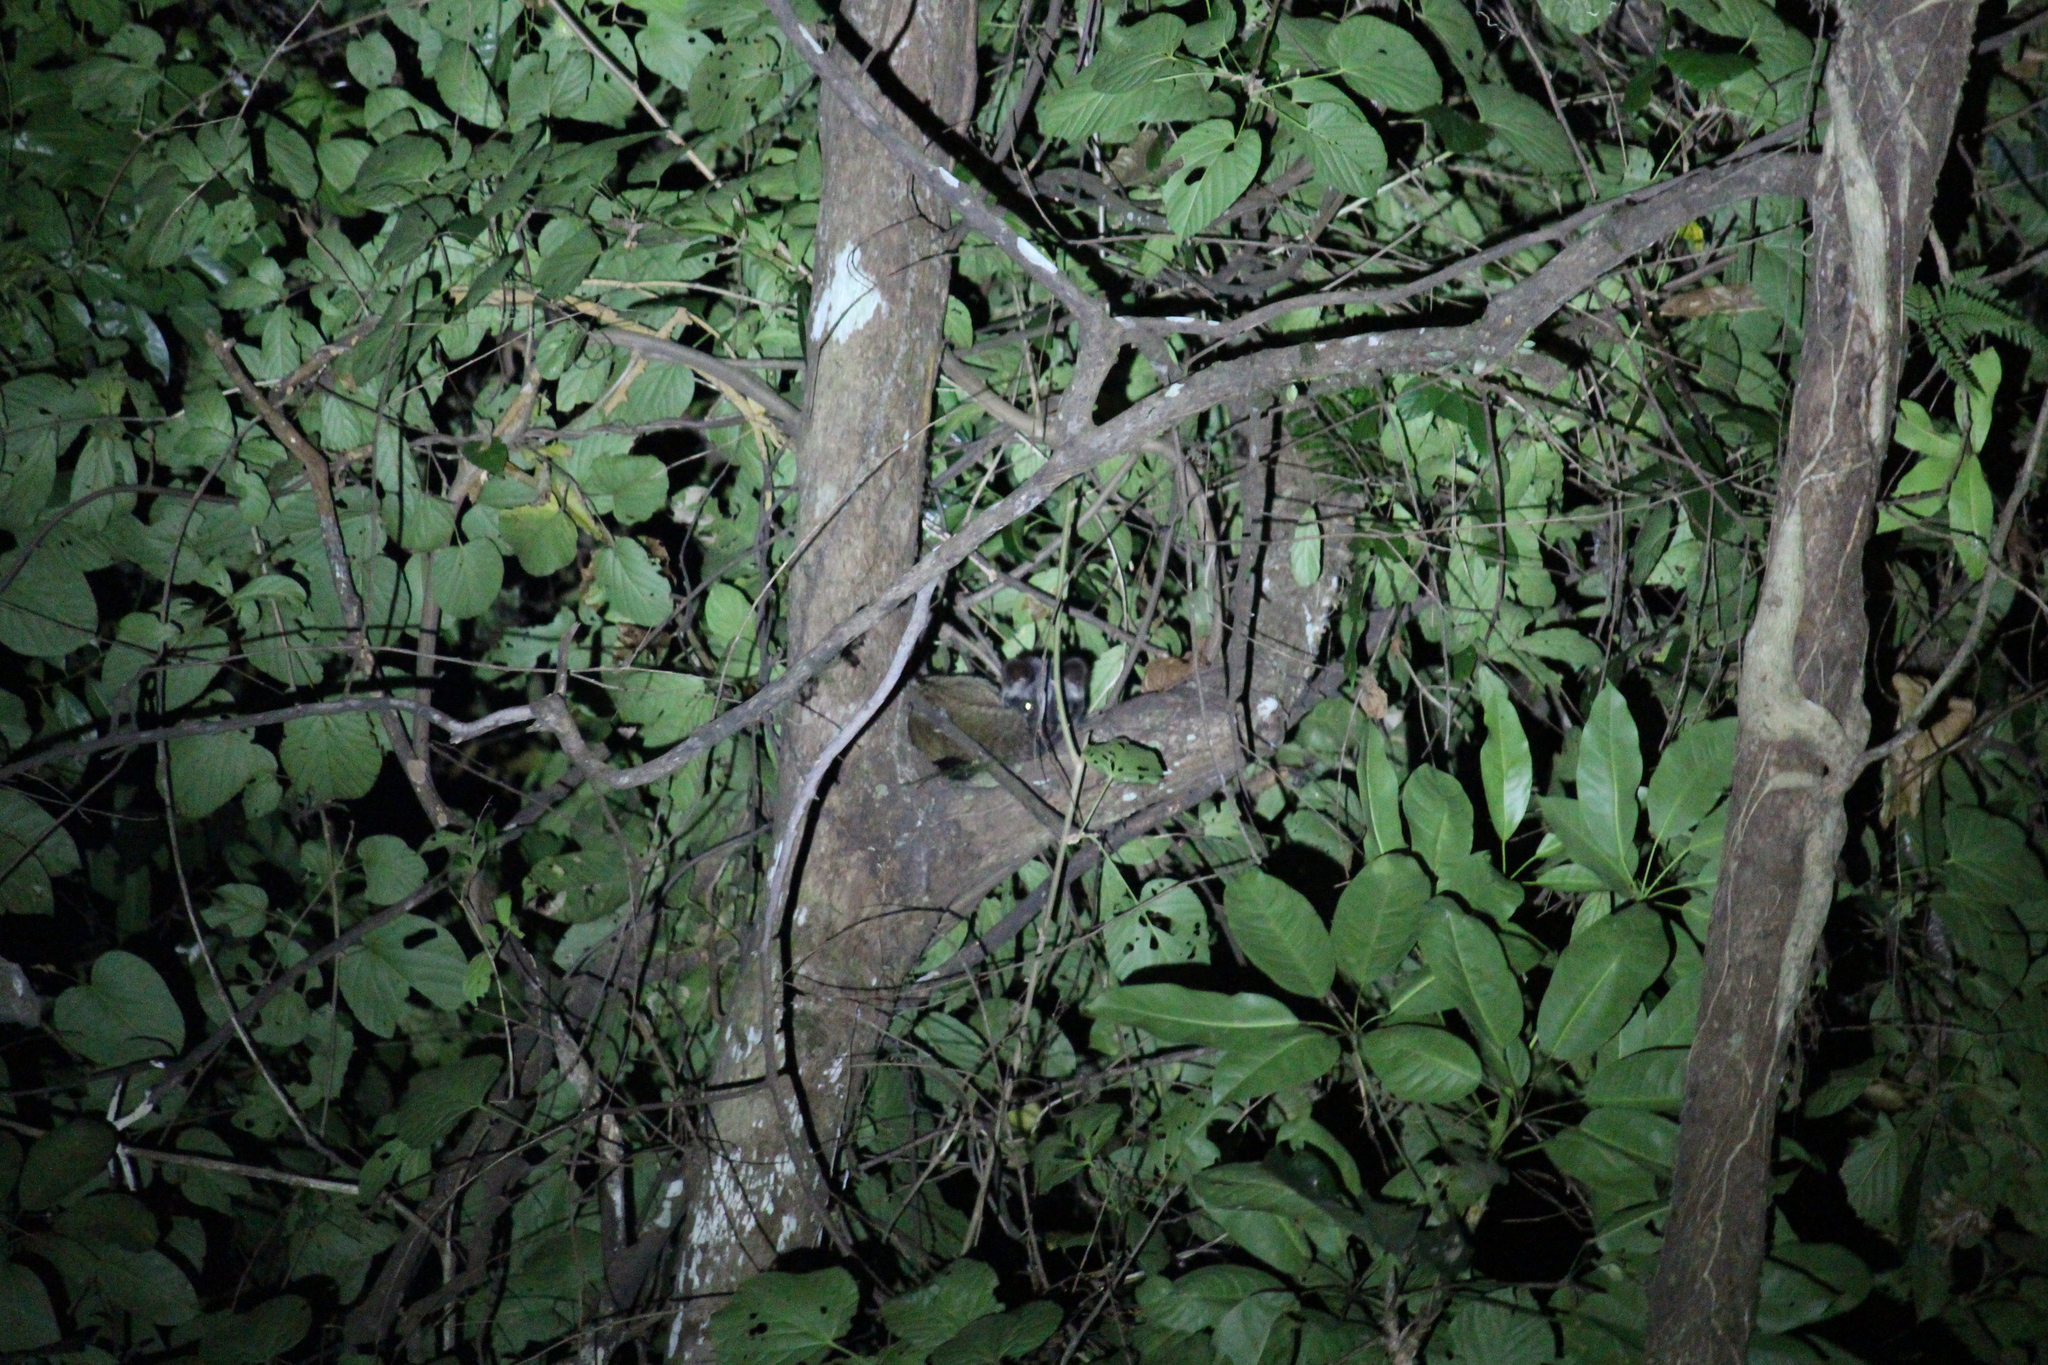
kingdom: Animalia
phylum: Chordata
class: Mammalia
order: Carnivora
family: Viverridae
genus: Paguma
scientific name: Paguma larvata
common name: Masked palm civet
